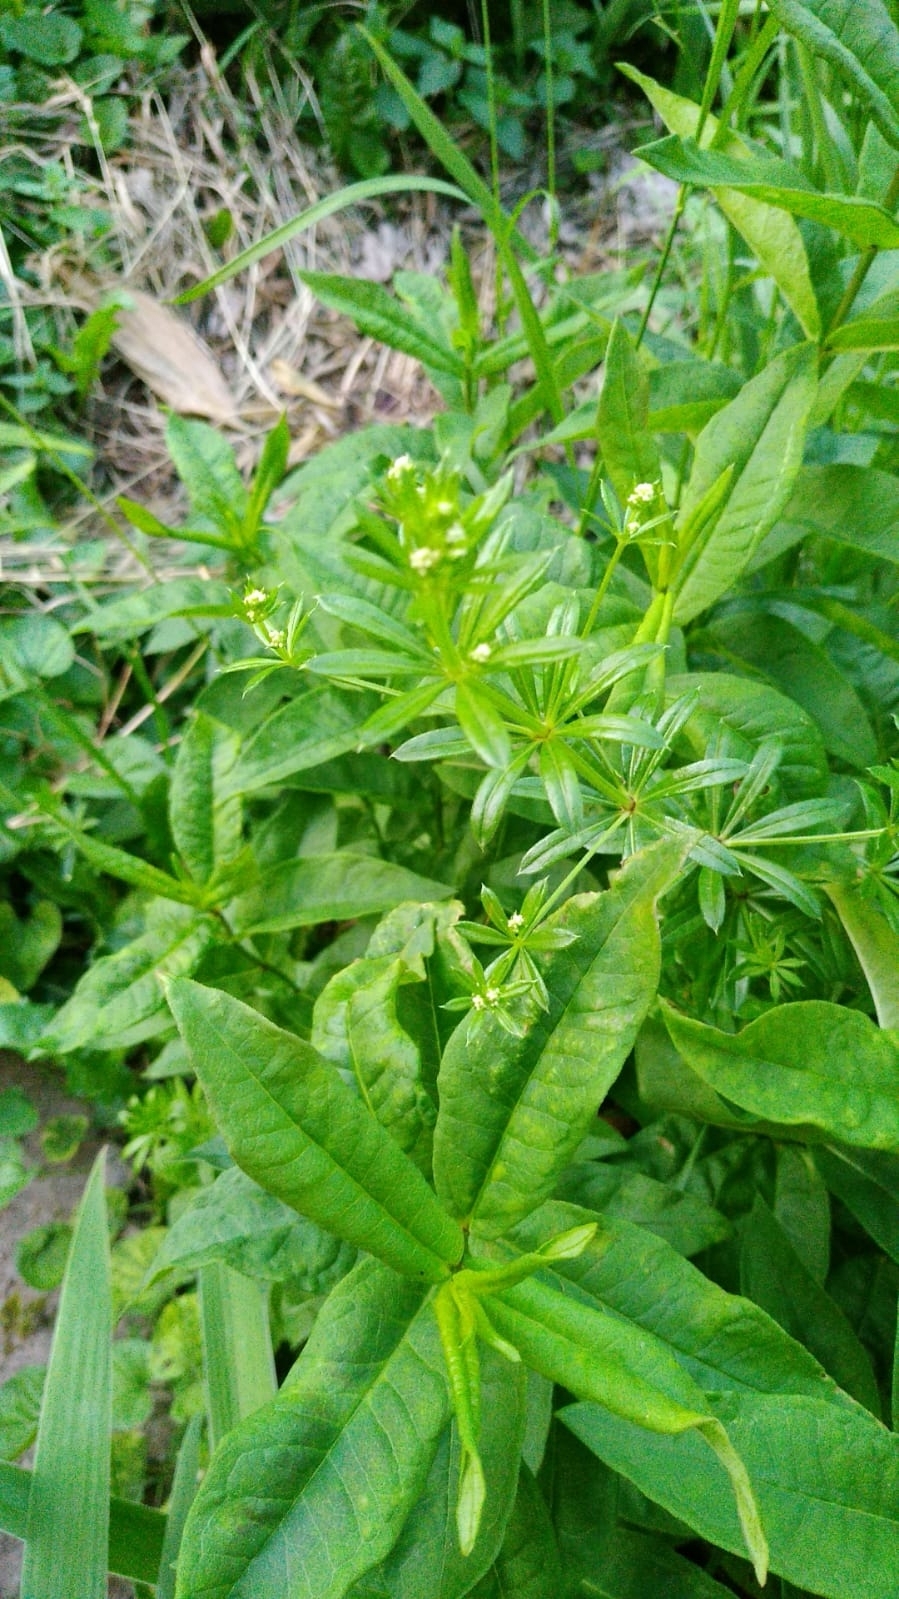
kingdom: Plantae
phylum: Tracheophyta
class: Magnoliopsida
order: Gentianales
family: Rubiaceae
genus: Galium
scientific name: Galium rivale
